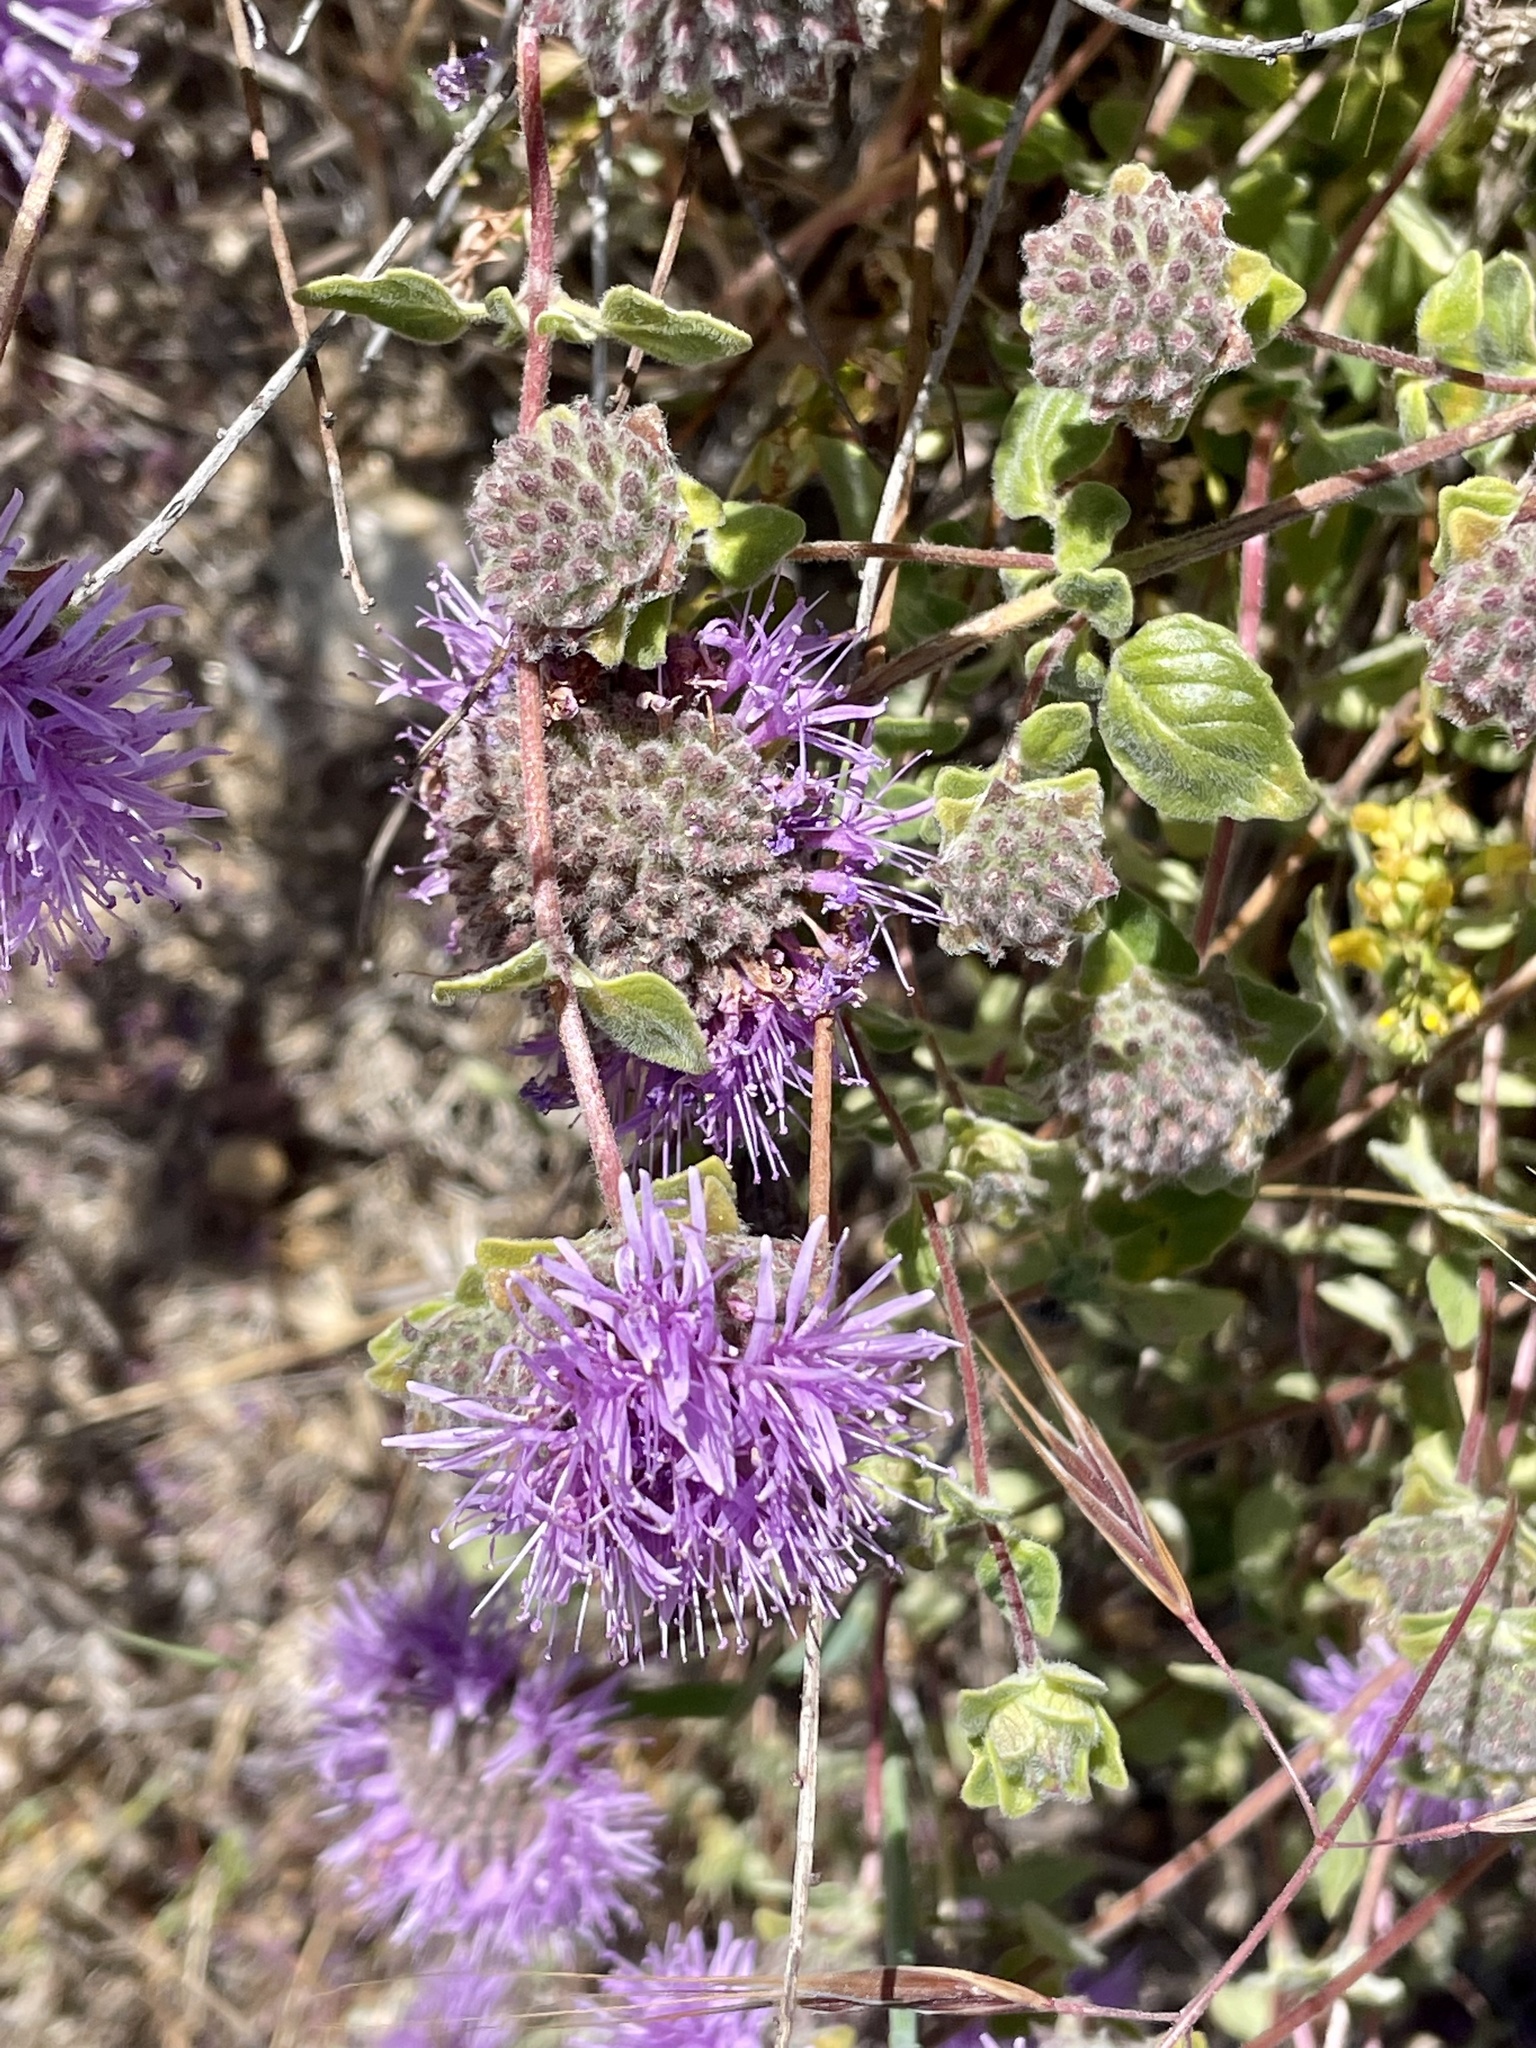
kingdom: Plantae
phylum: Tracheophyta
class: Magnoliopsida
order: Lamiales
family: Lamiaceae
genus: Monardella
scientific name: Monardella odoratissima
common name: Pacific monardella
